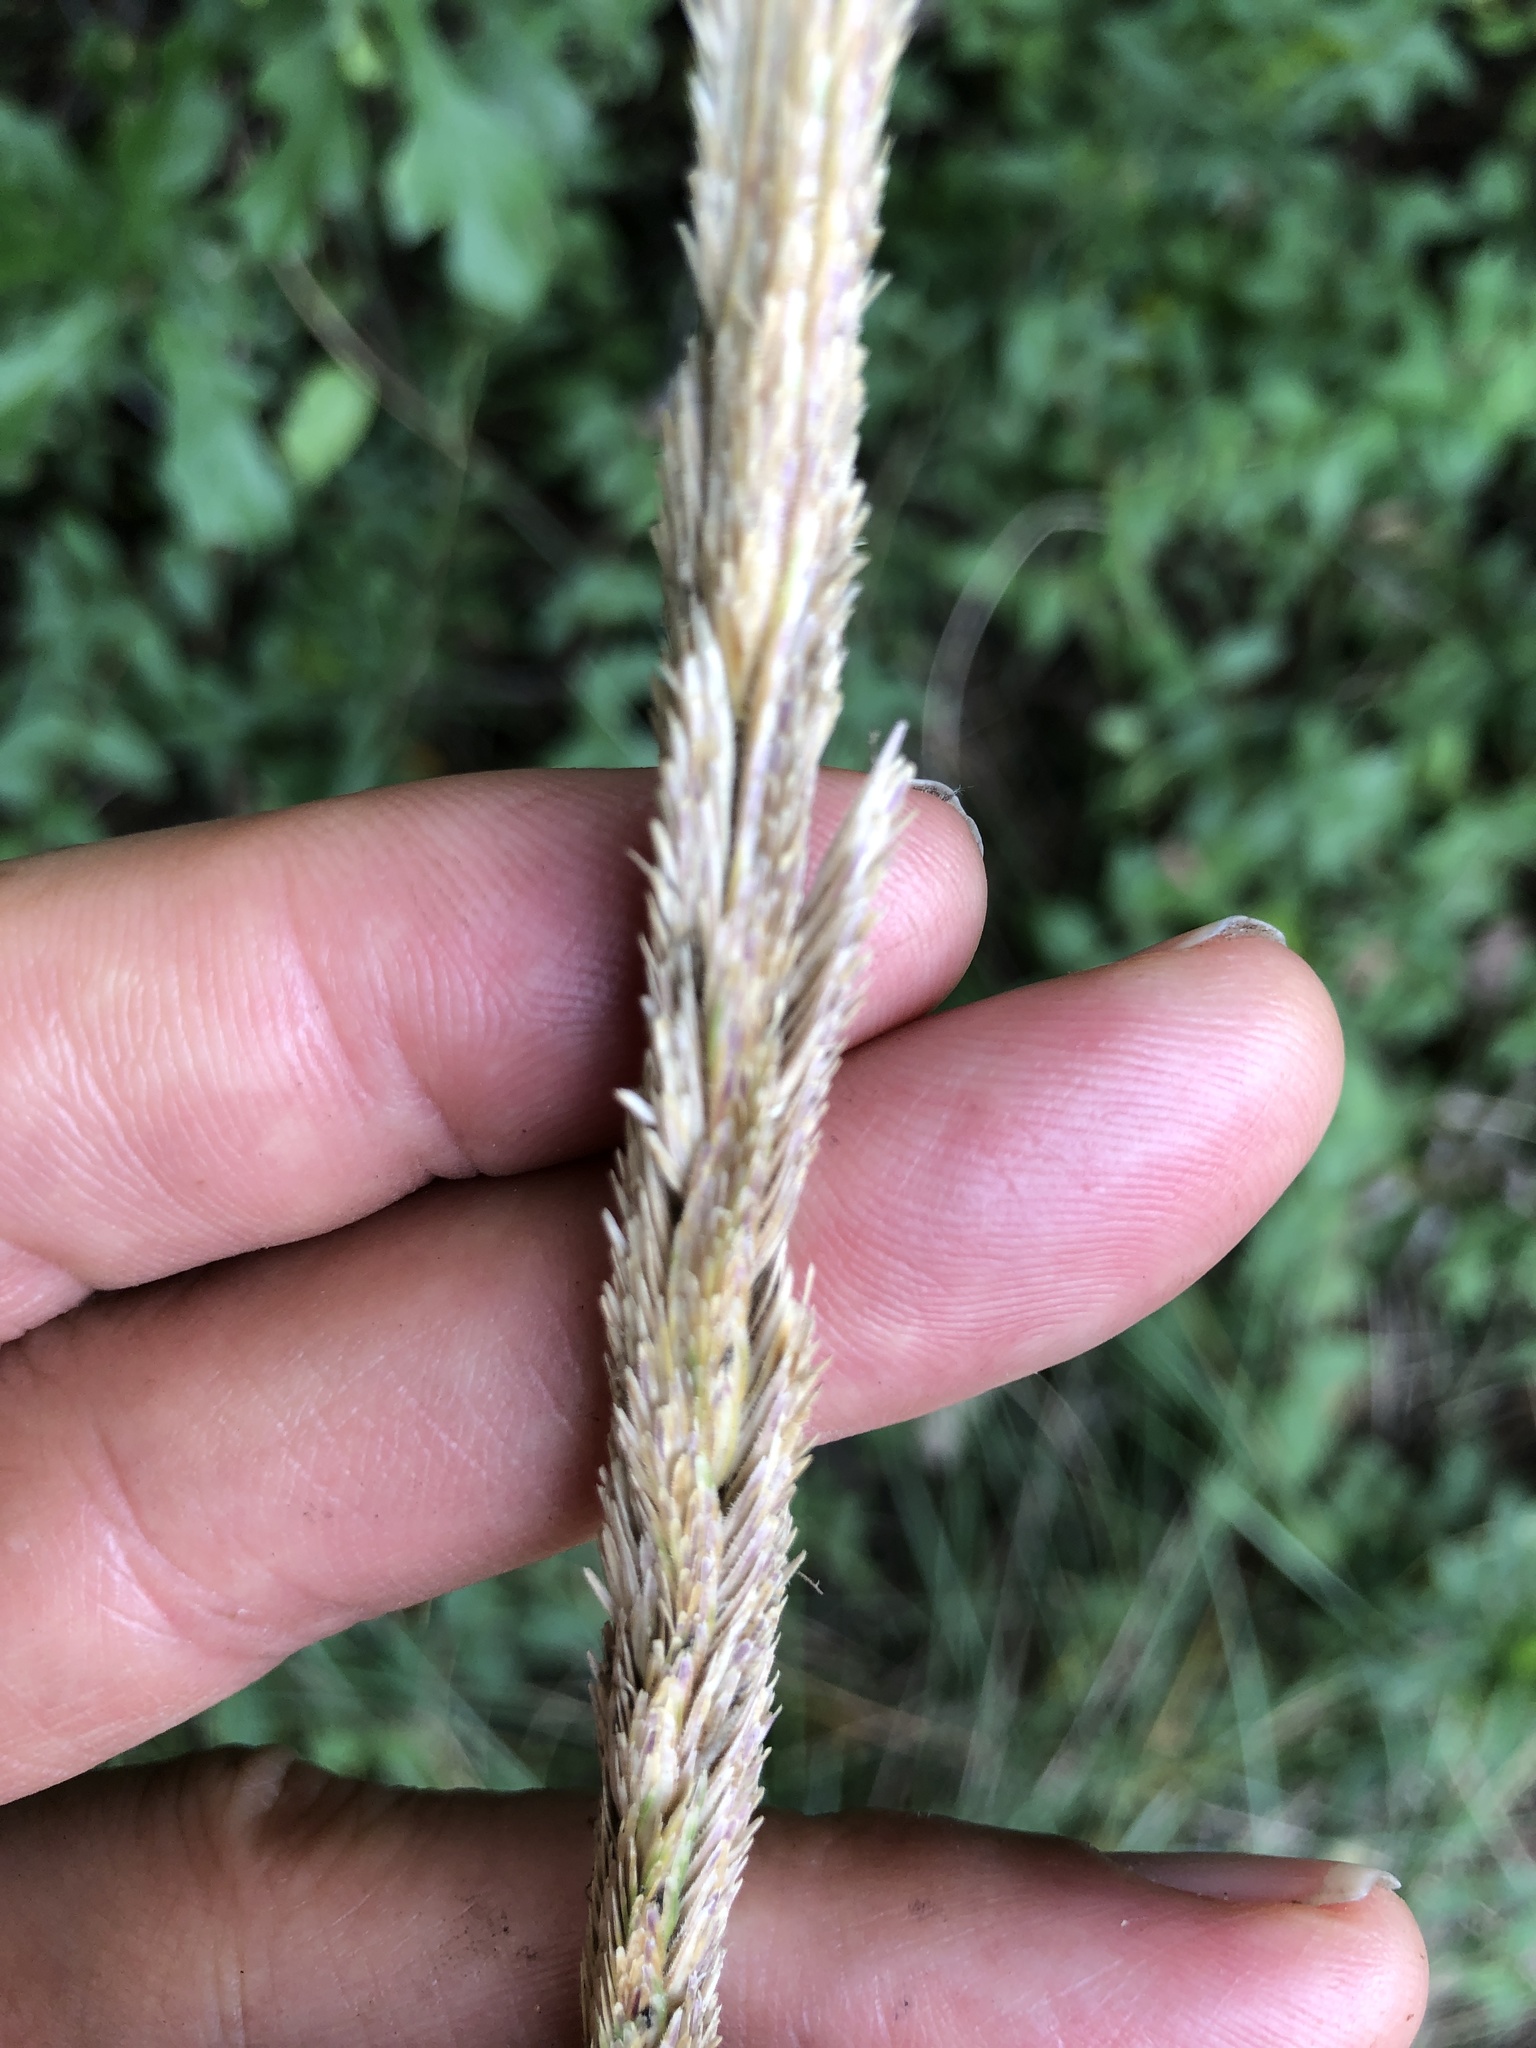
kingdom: Plantae
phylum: Tracheophyta
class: Liliopsida
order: Poales
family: Poaceae
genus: Sporobolus
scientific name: Sporobolus spartinae
